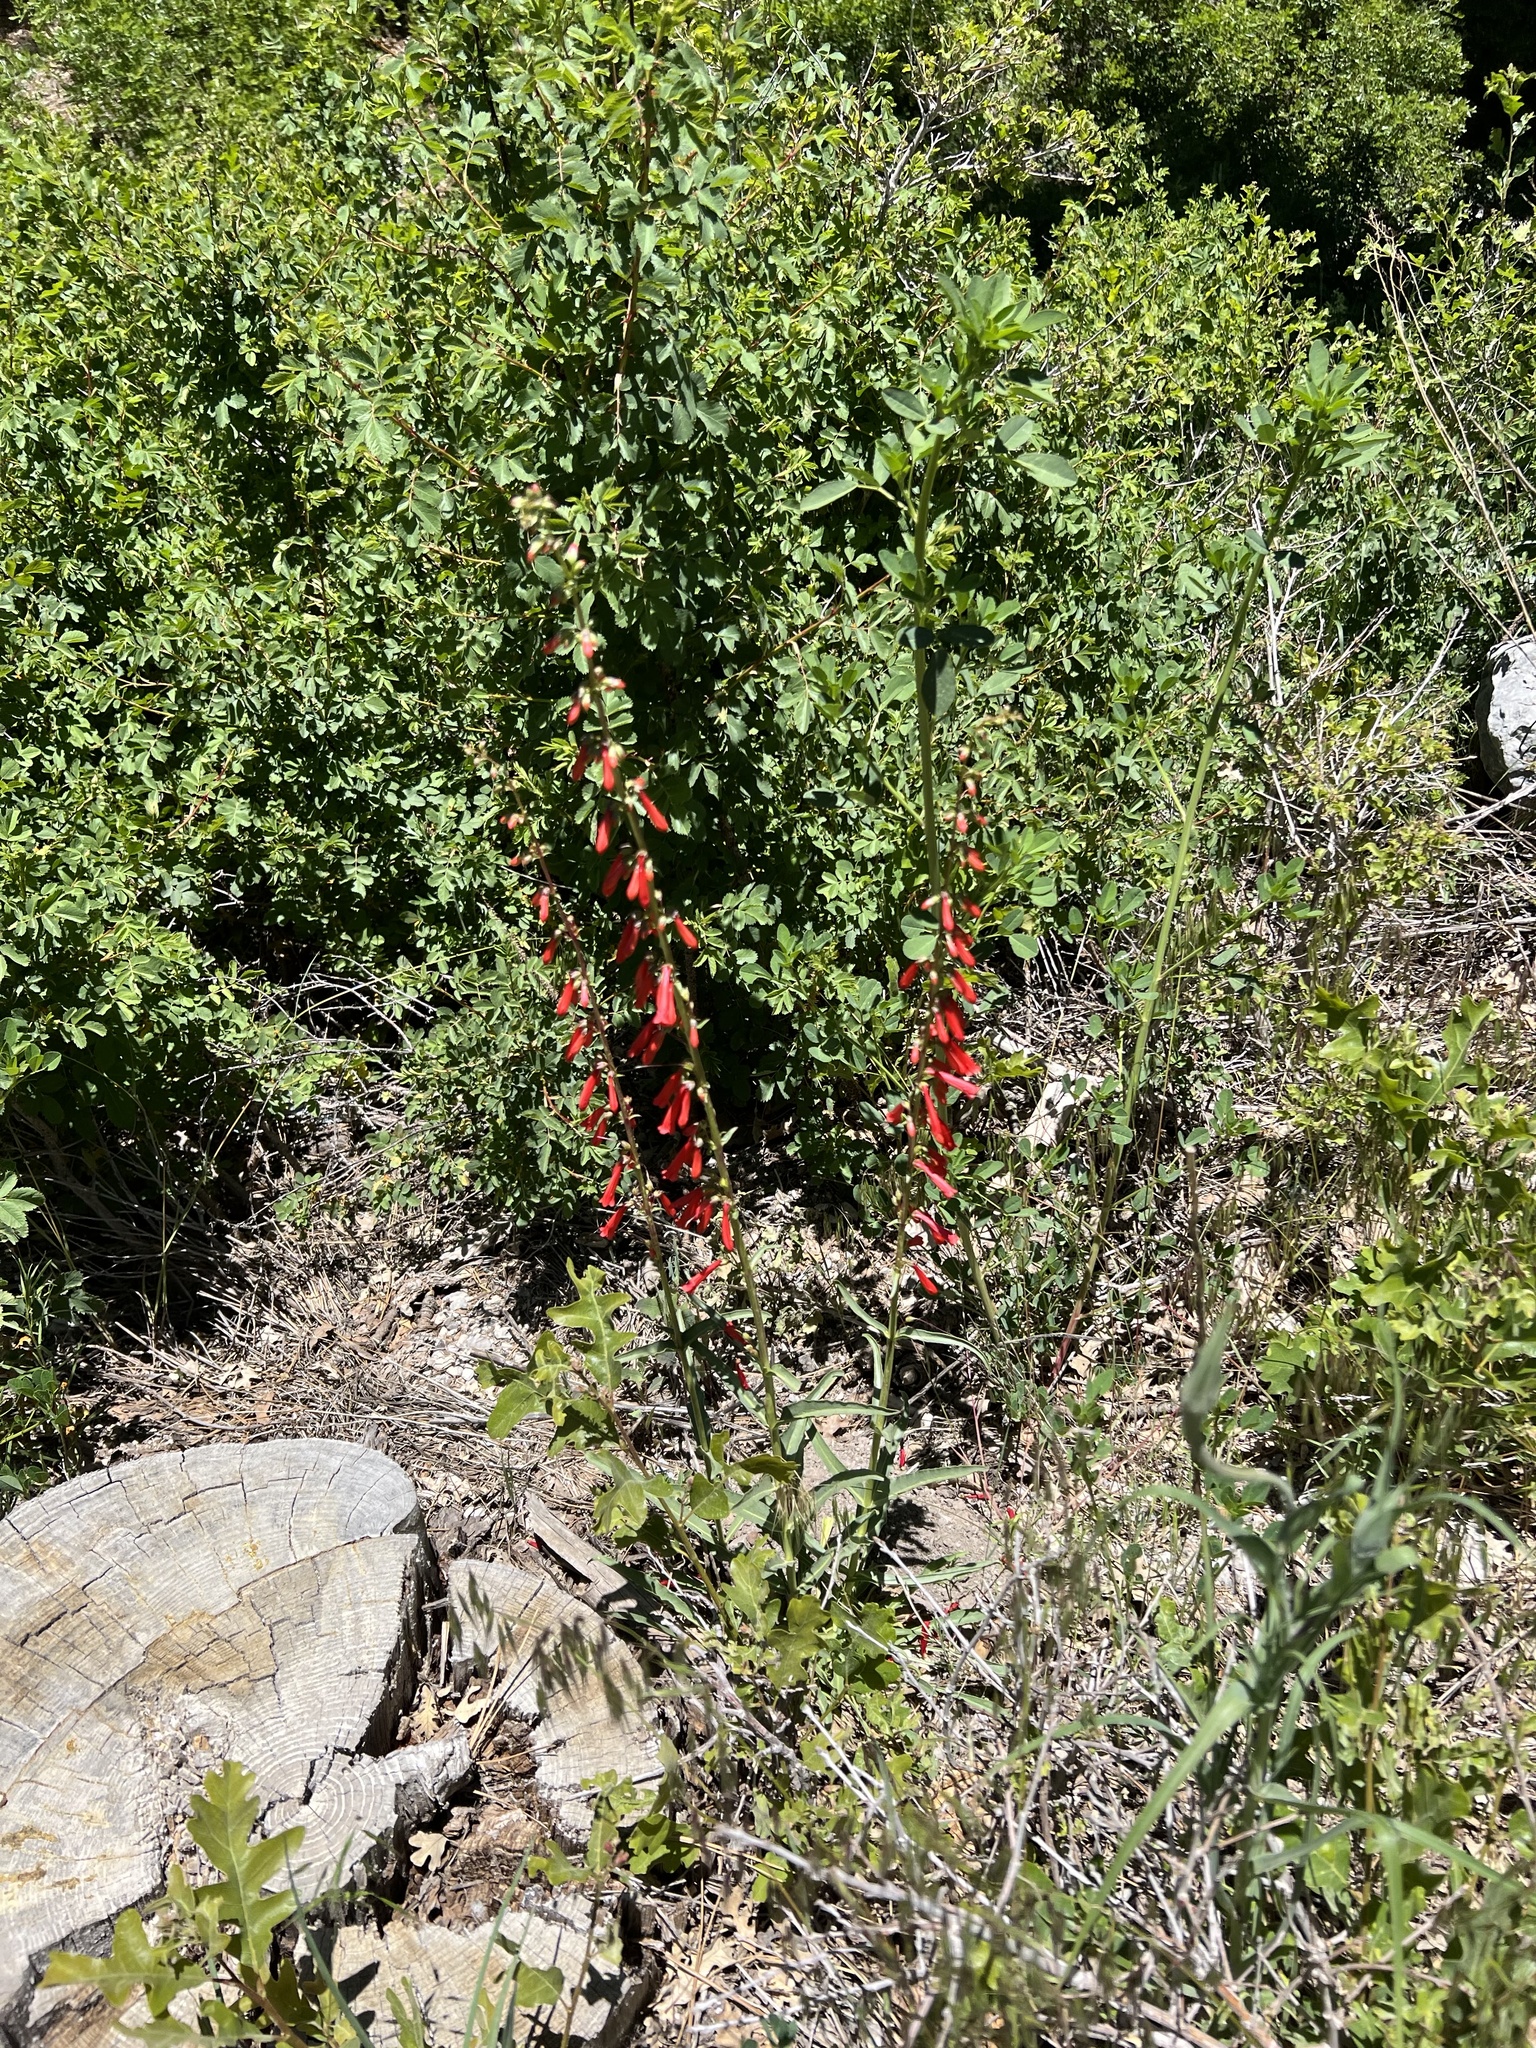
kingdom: Plantae
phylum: Tracheophyta
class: Magnoliopsida
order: Lamiales
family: Plantaginaceae
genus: Penstemon
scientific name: Penstemon eatonii
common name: Eaton's penstemon
